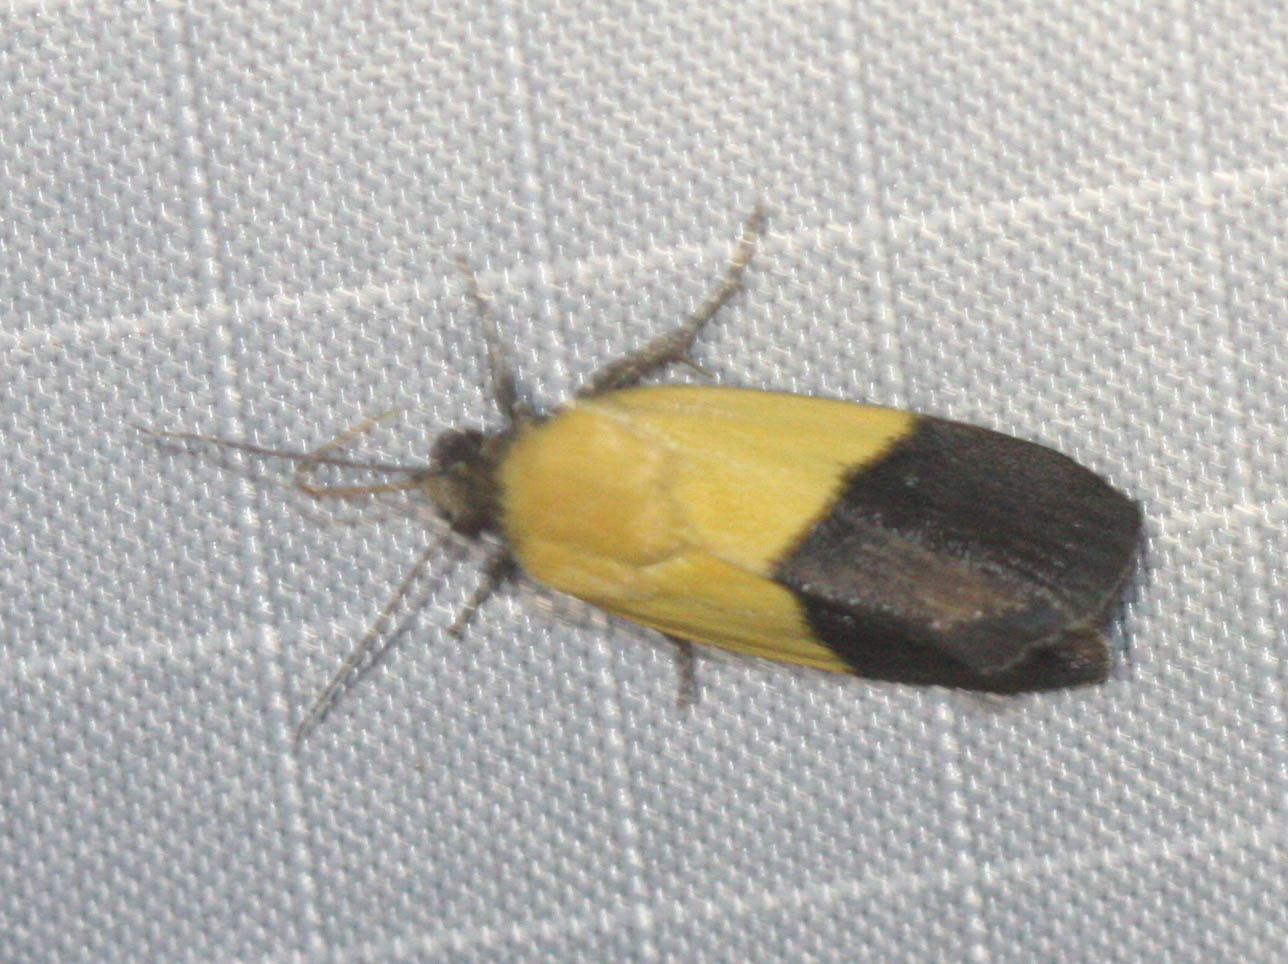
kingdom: Animalia
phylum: Arthropoda
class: Insecta
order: Lepidoptera
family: Noctuidae
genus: Acontia
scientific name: Acontia semiflava
